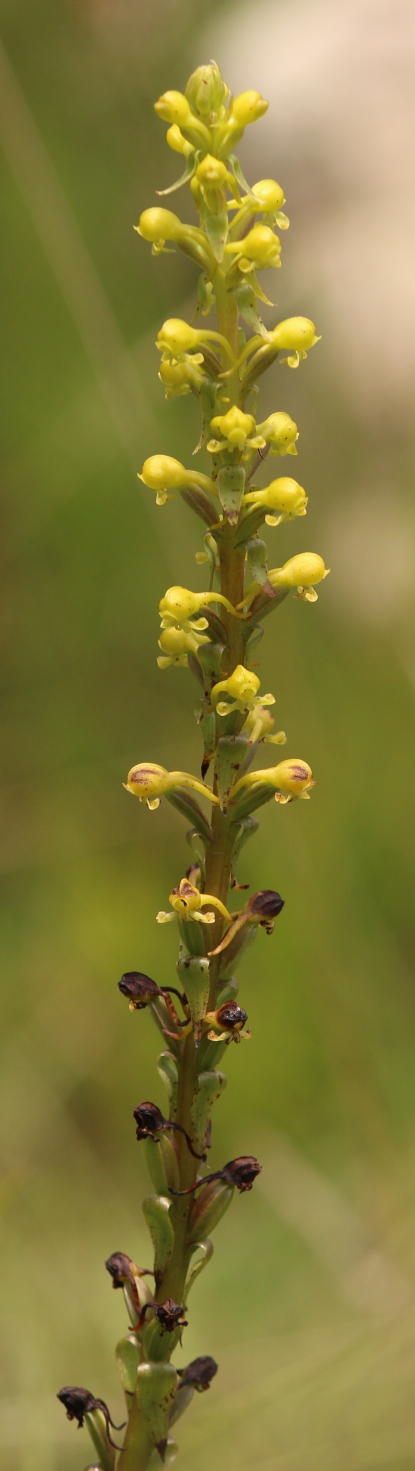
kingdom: Plantae
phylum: Tracheophyta
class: Liliopsida
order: Asparagales
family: Orchidaceae
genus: Satyrium
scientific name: Satyrium parviflorum
